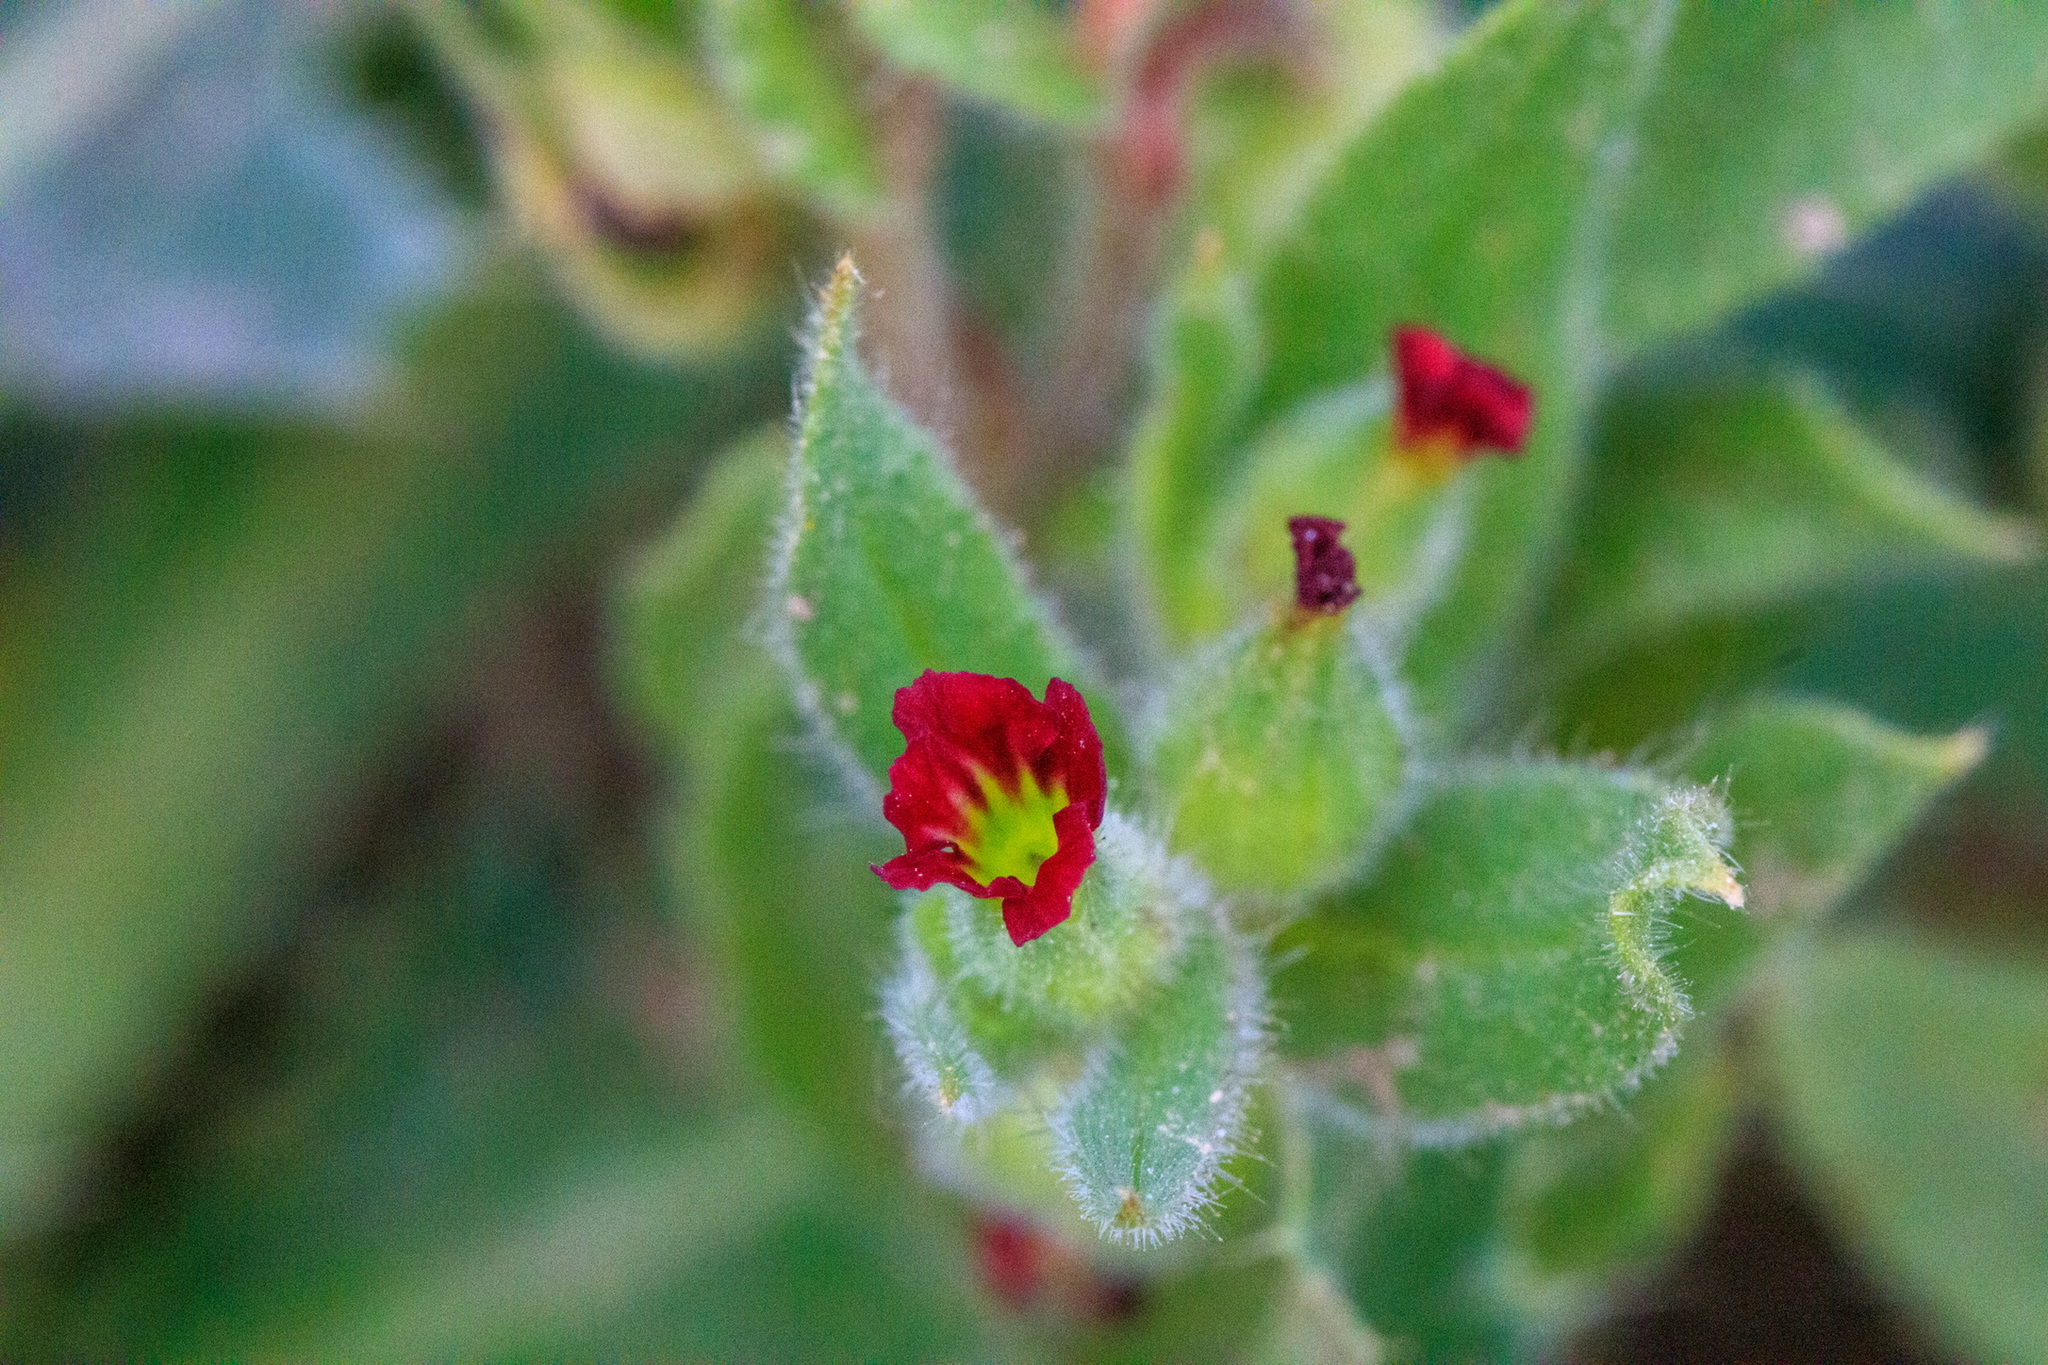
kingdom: Plantae
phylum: Tracheophyta
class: Magnoliopsida
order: Boraginales
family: Boraginaceae
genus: Nonea
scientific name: Nonea caspica
